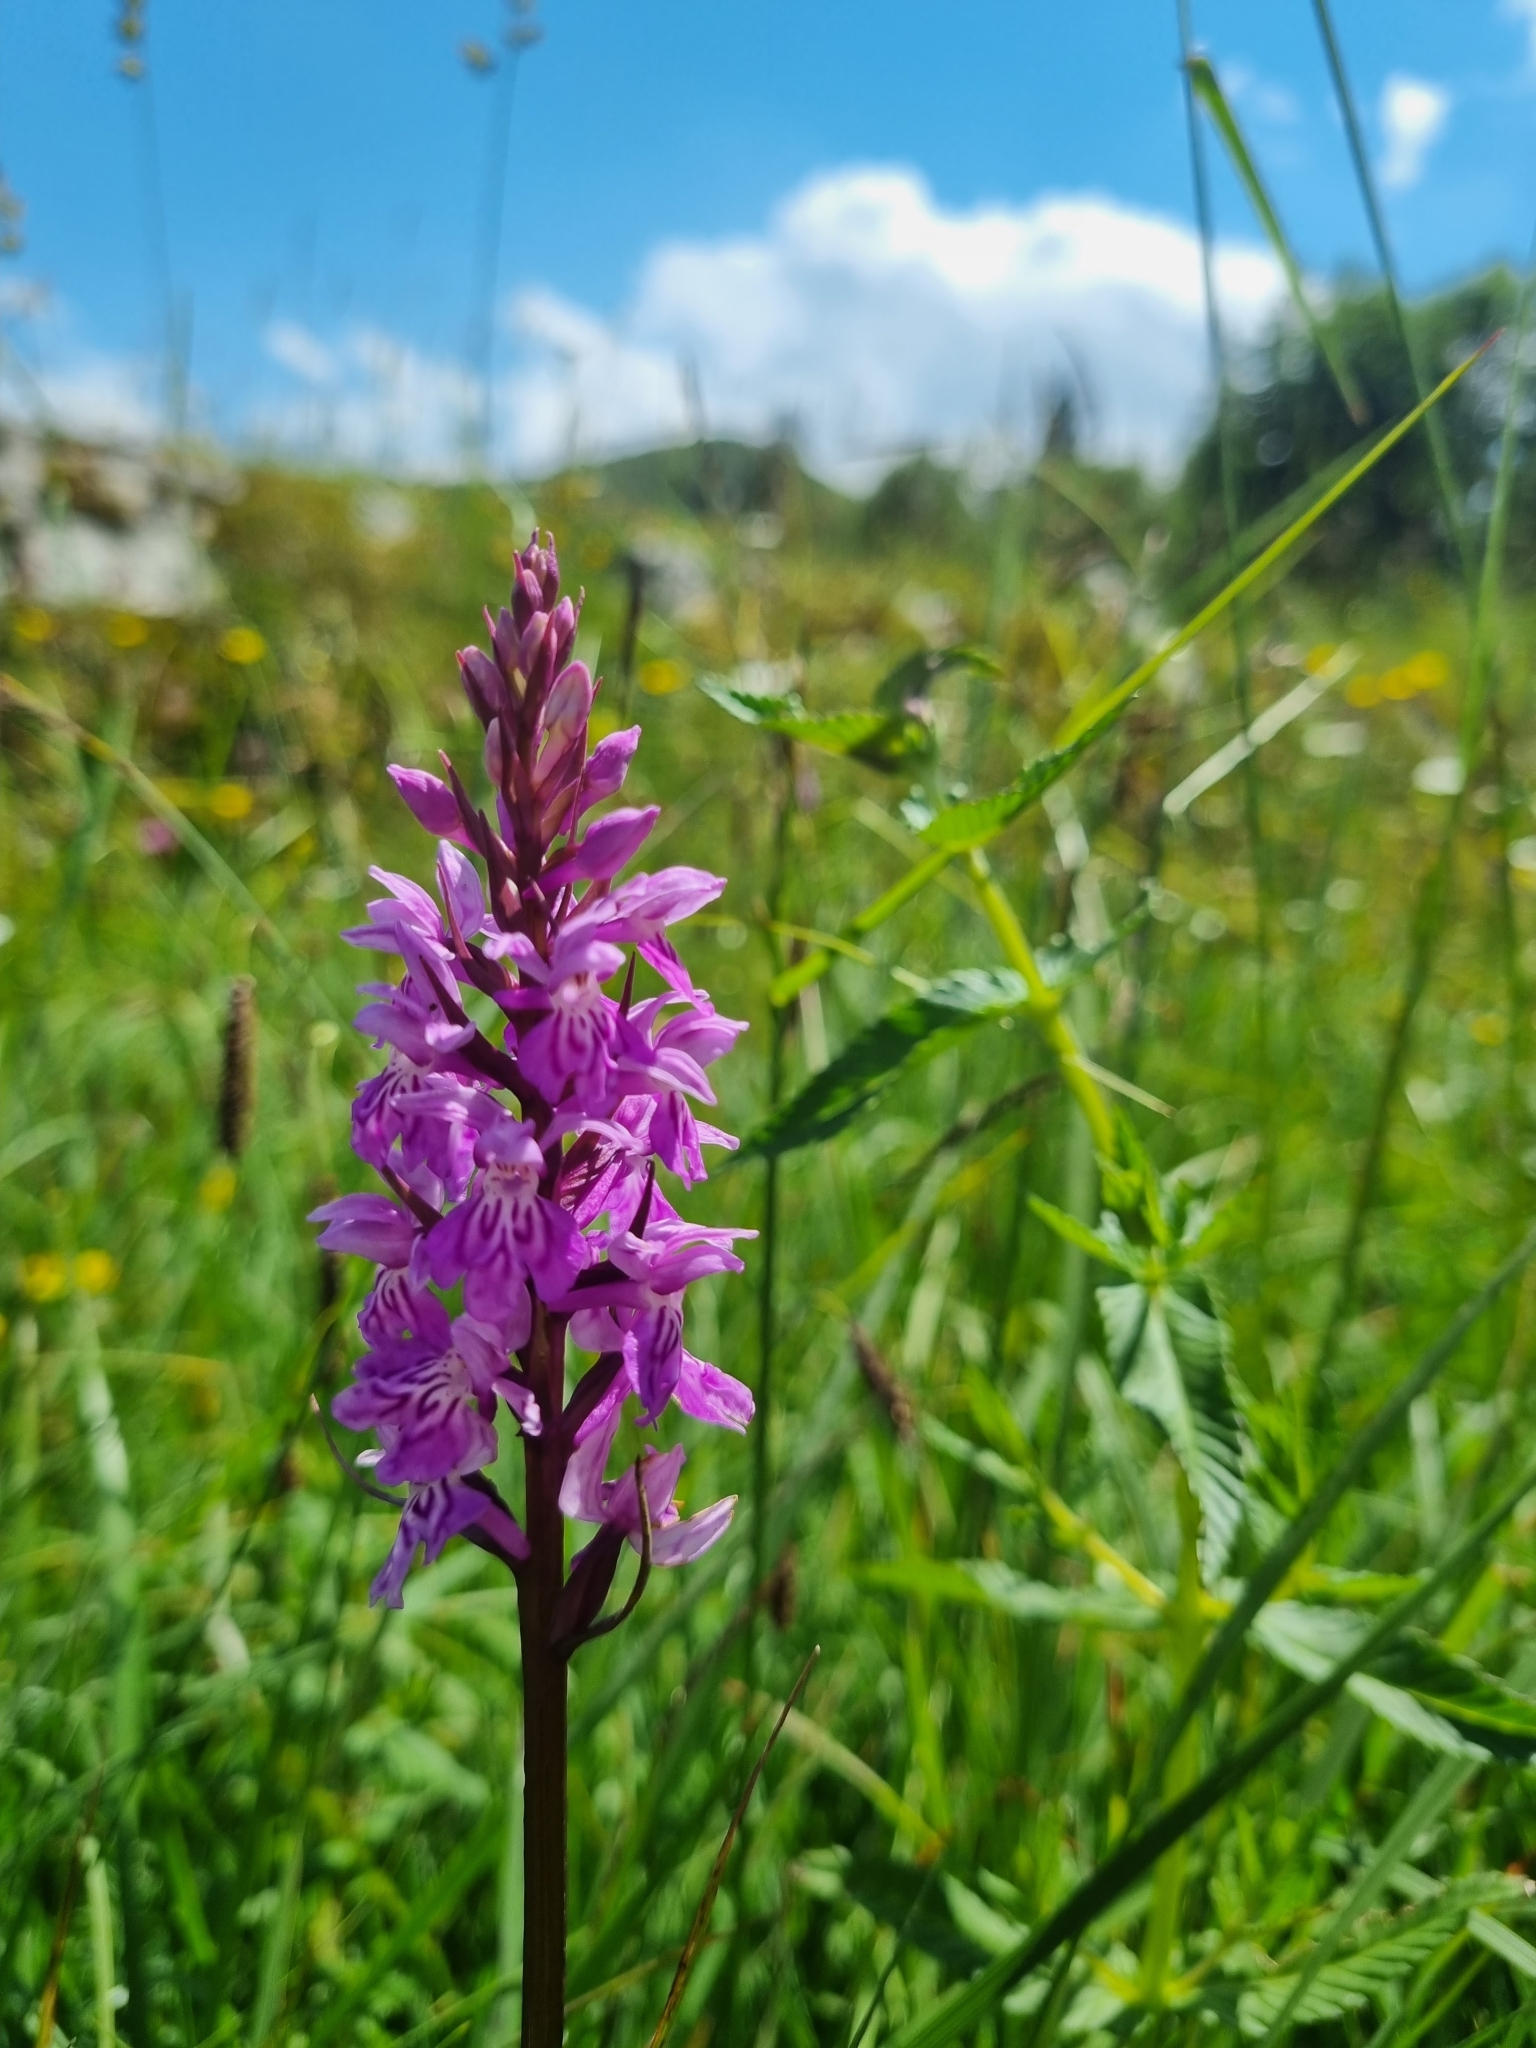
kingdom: Plantae
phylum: Tracheophyta
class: Liliopsida
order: Asparagales
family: Orchidaceae
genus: Dactylorhiza
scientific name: Dactylorhiza maculata
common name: Heath spotted-orchid
